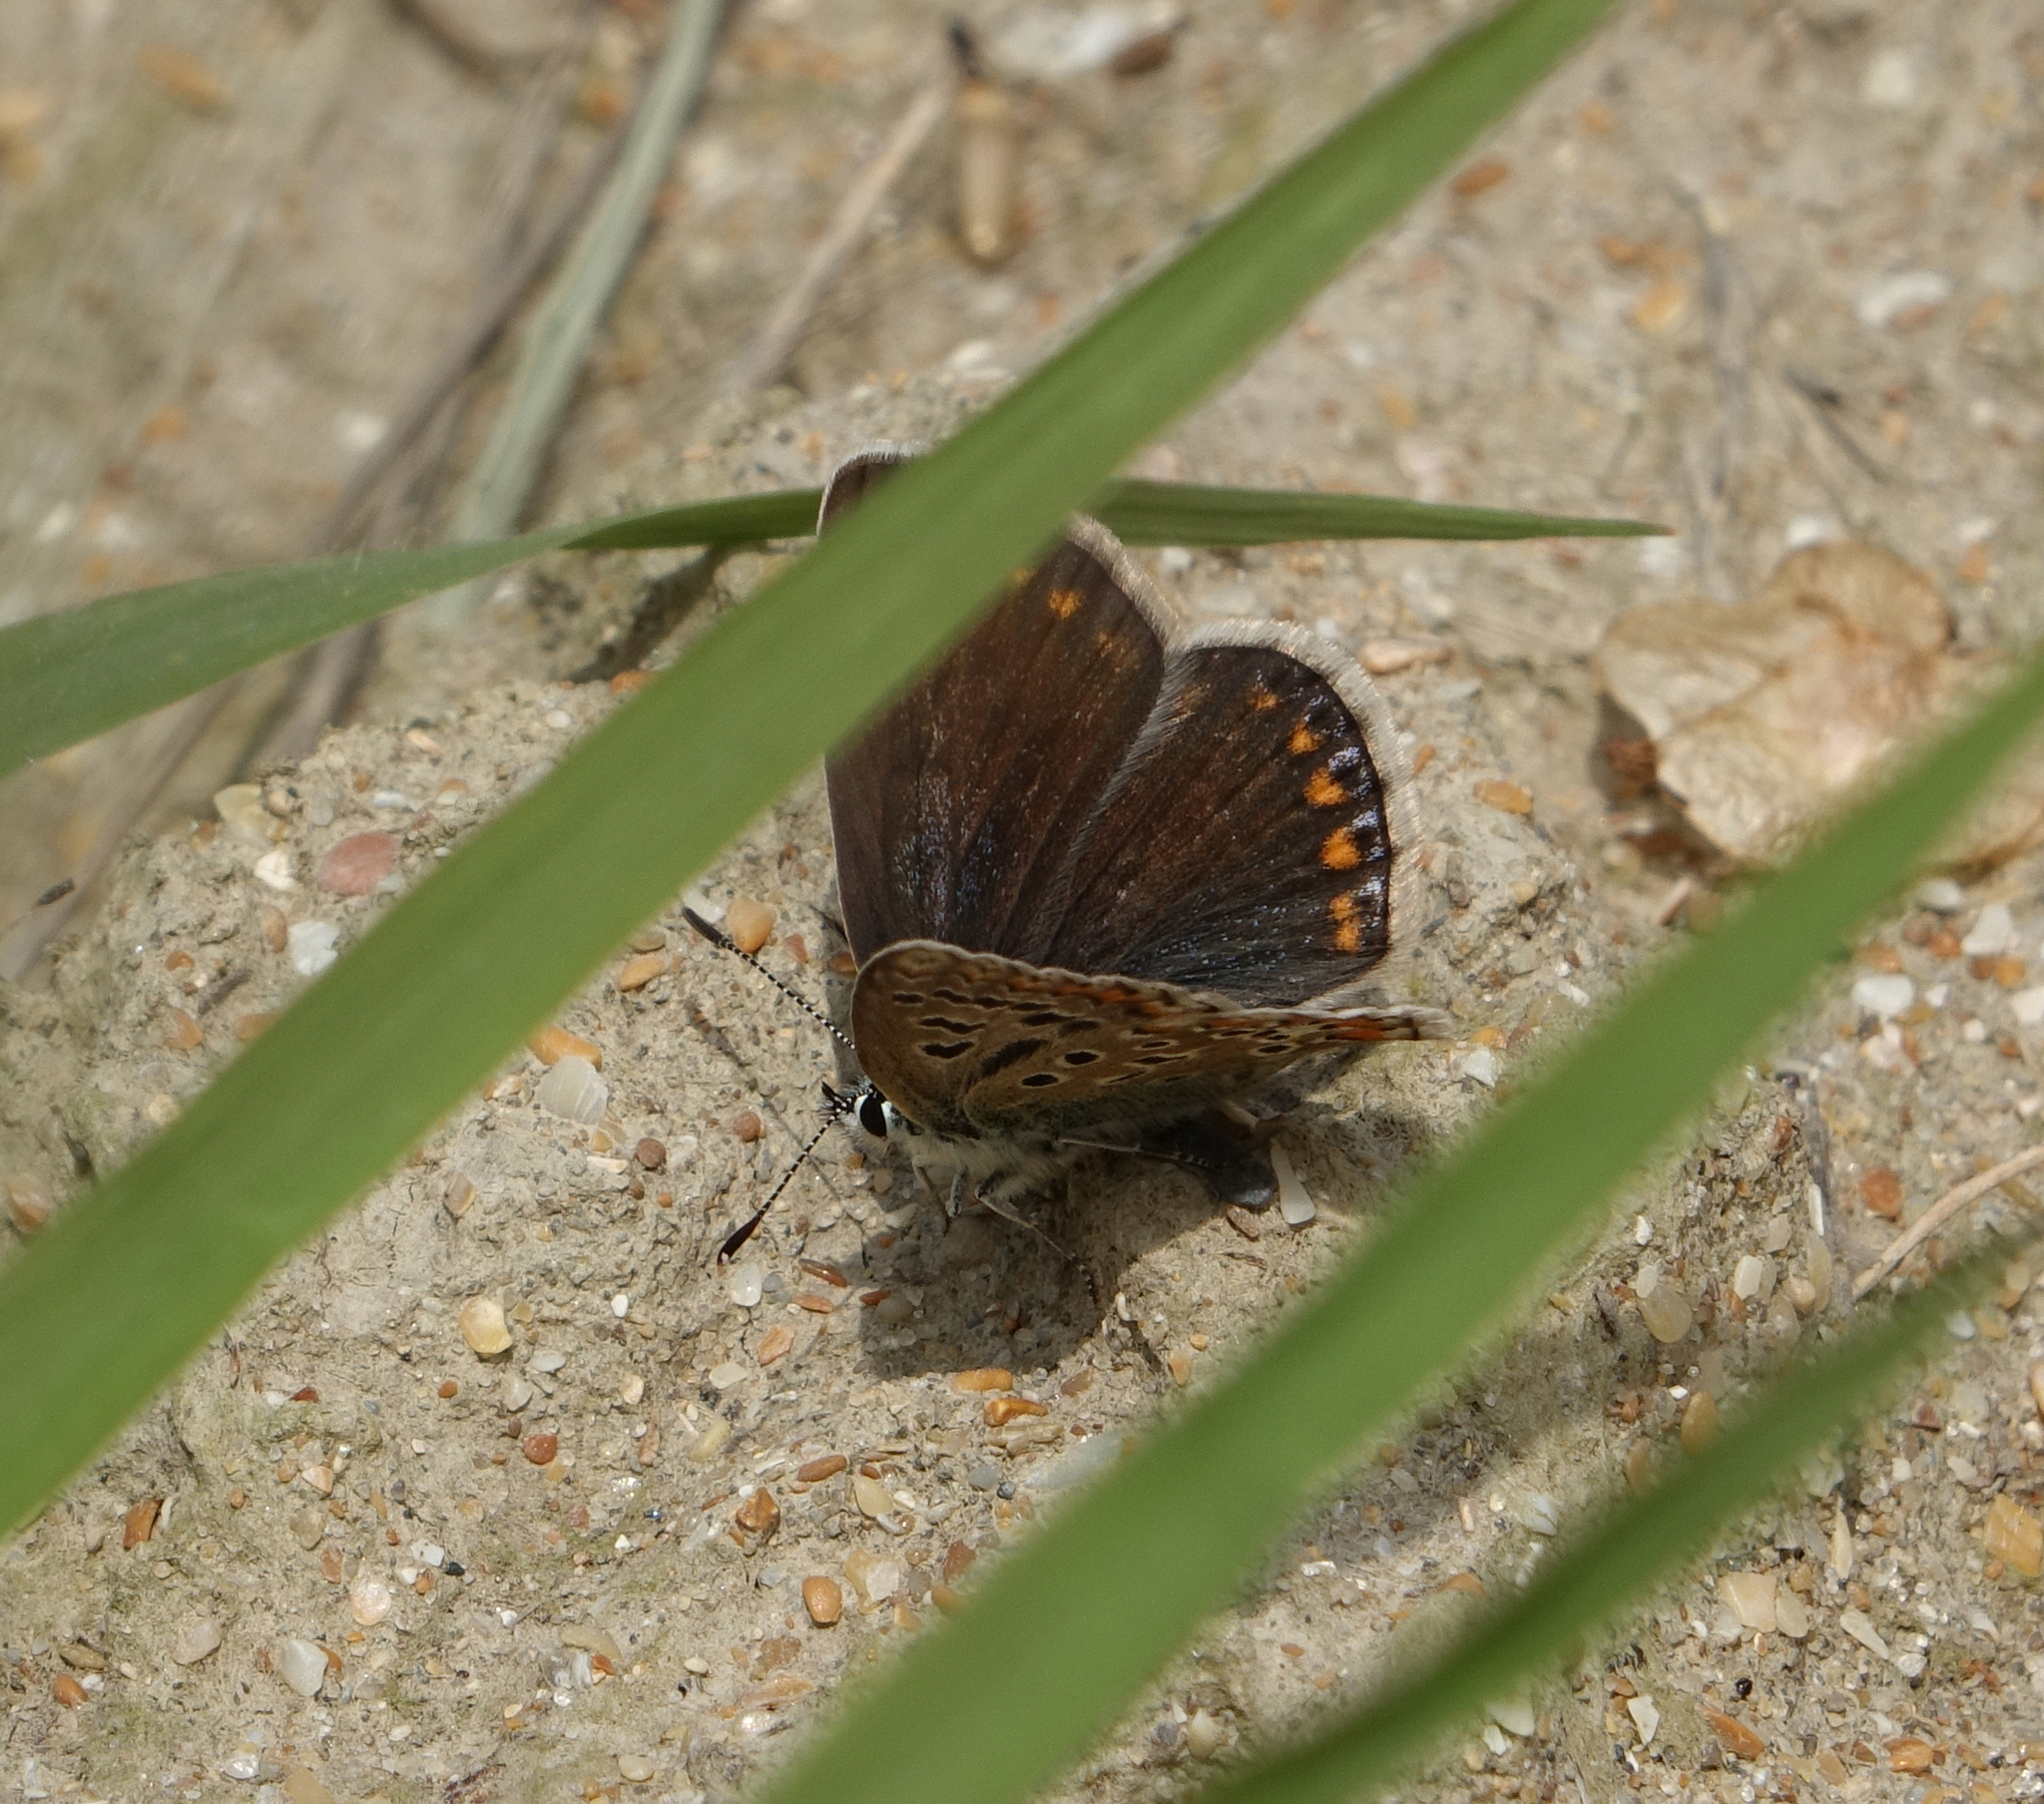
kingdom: Animalia
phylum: Arthropoda
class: Insecta
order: Lepidoptera
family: Lycaenidae
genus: Polyommatus
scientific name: Polyommatus icarus
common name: Common blue
